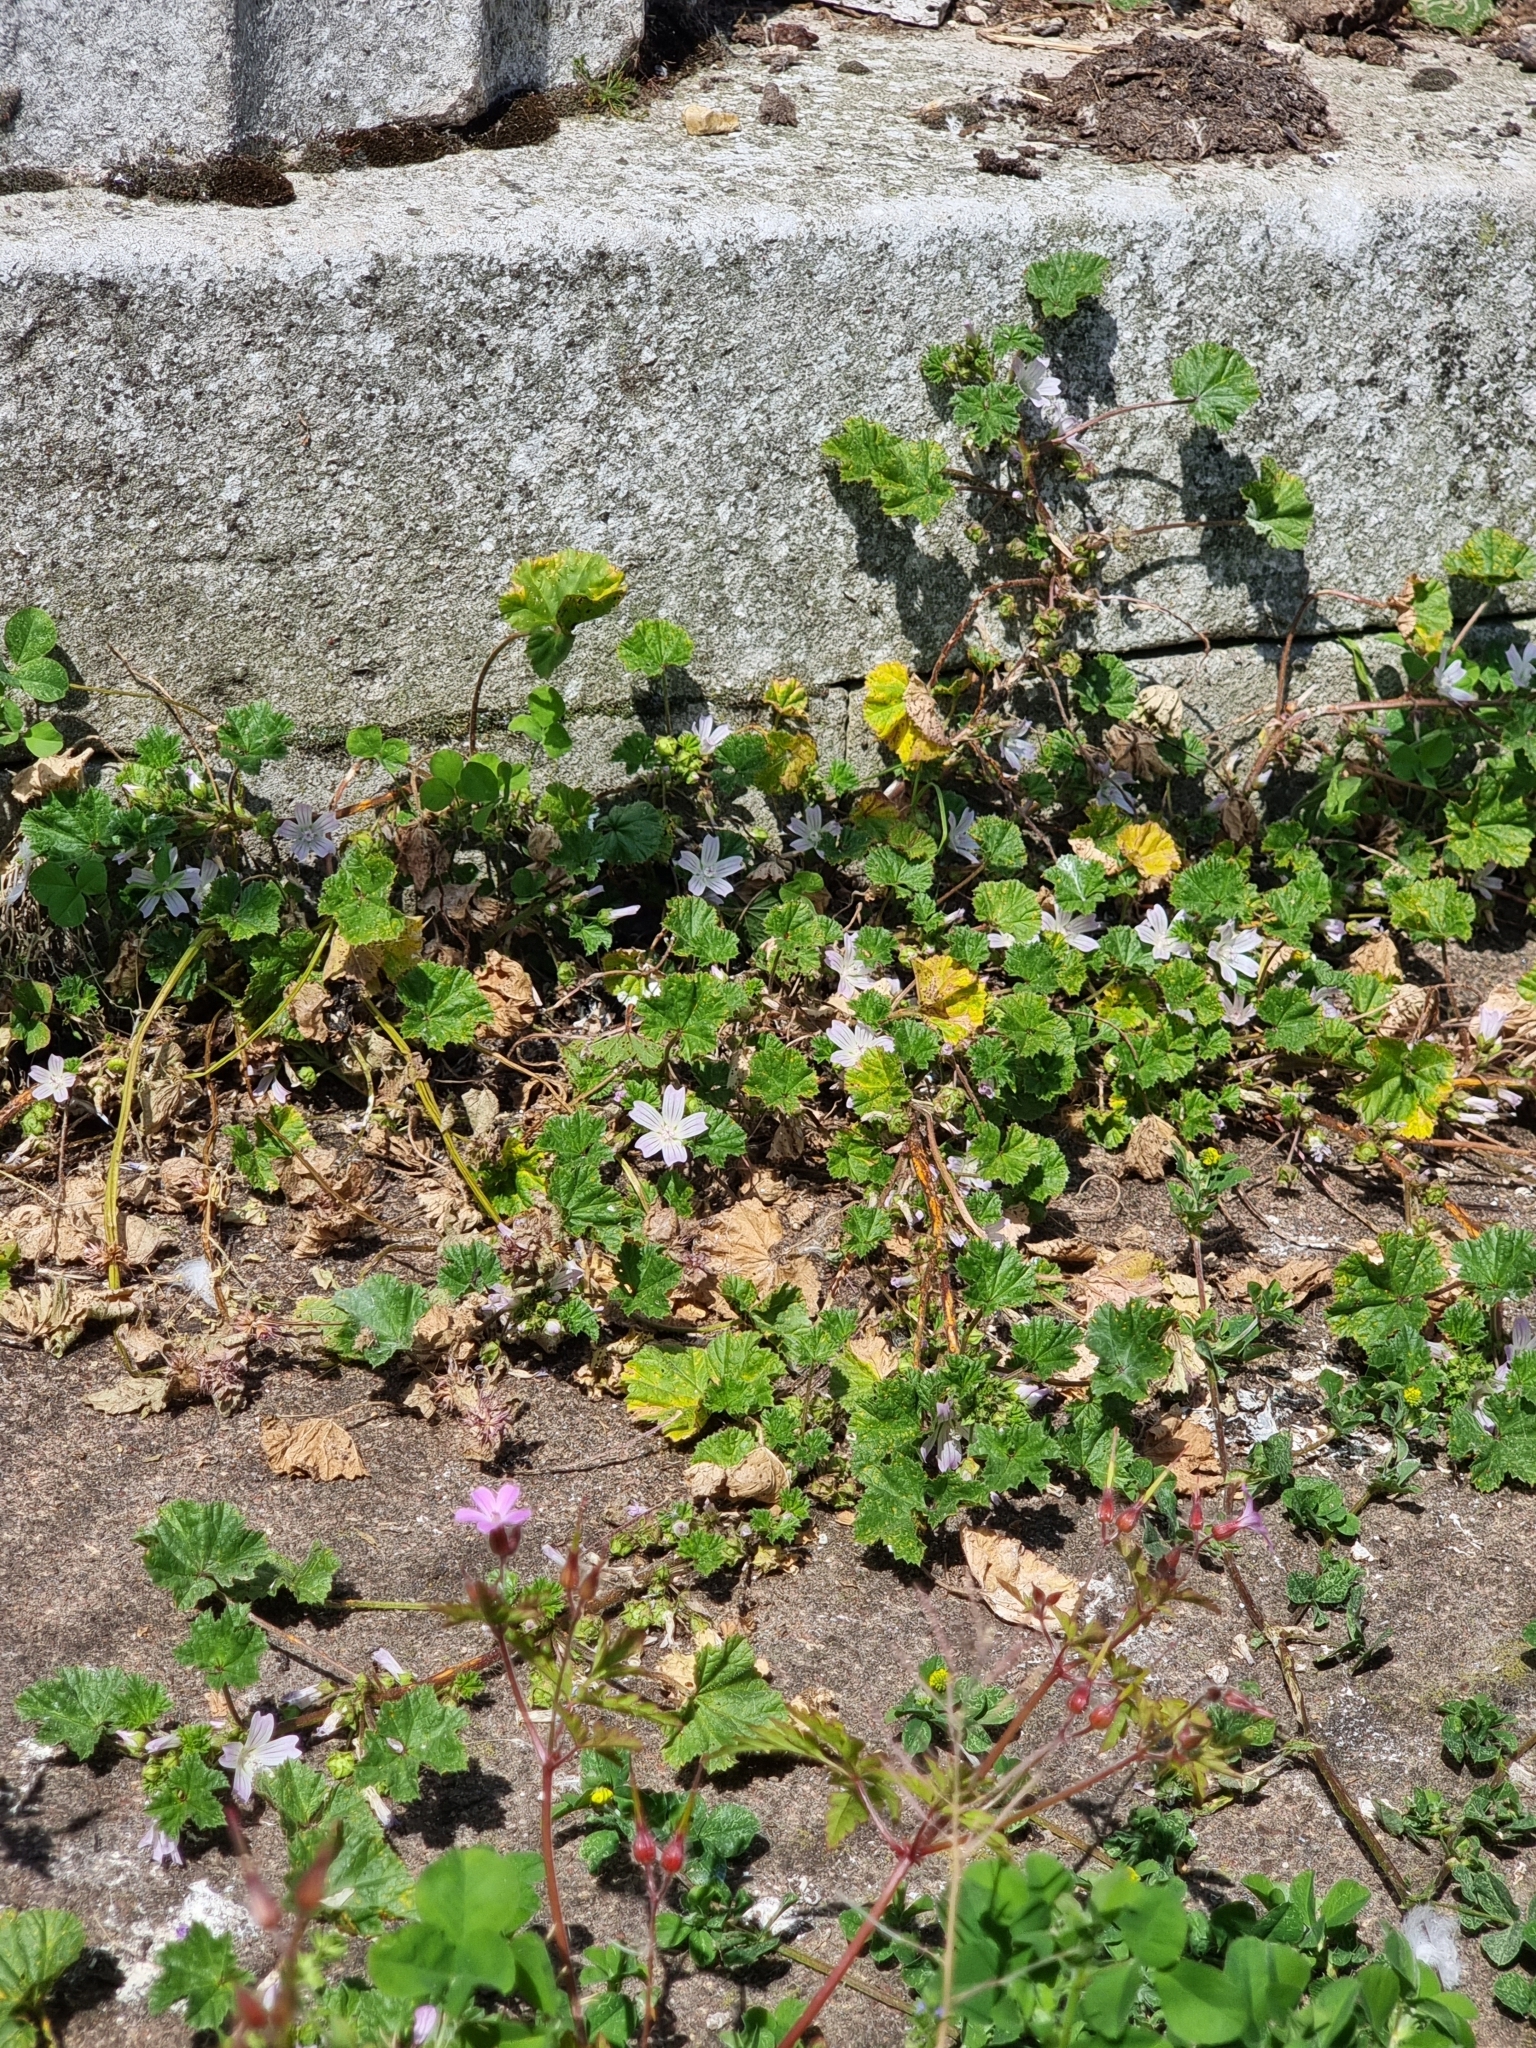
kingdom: Plantae
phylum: Tracheophyta
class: Magnoliopsida
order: Malvales
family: Malvaceae
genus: Malva
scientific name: Malva neglecta
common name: Common mallow
